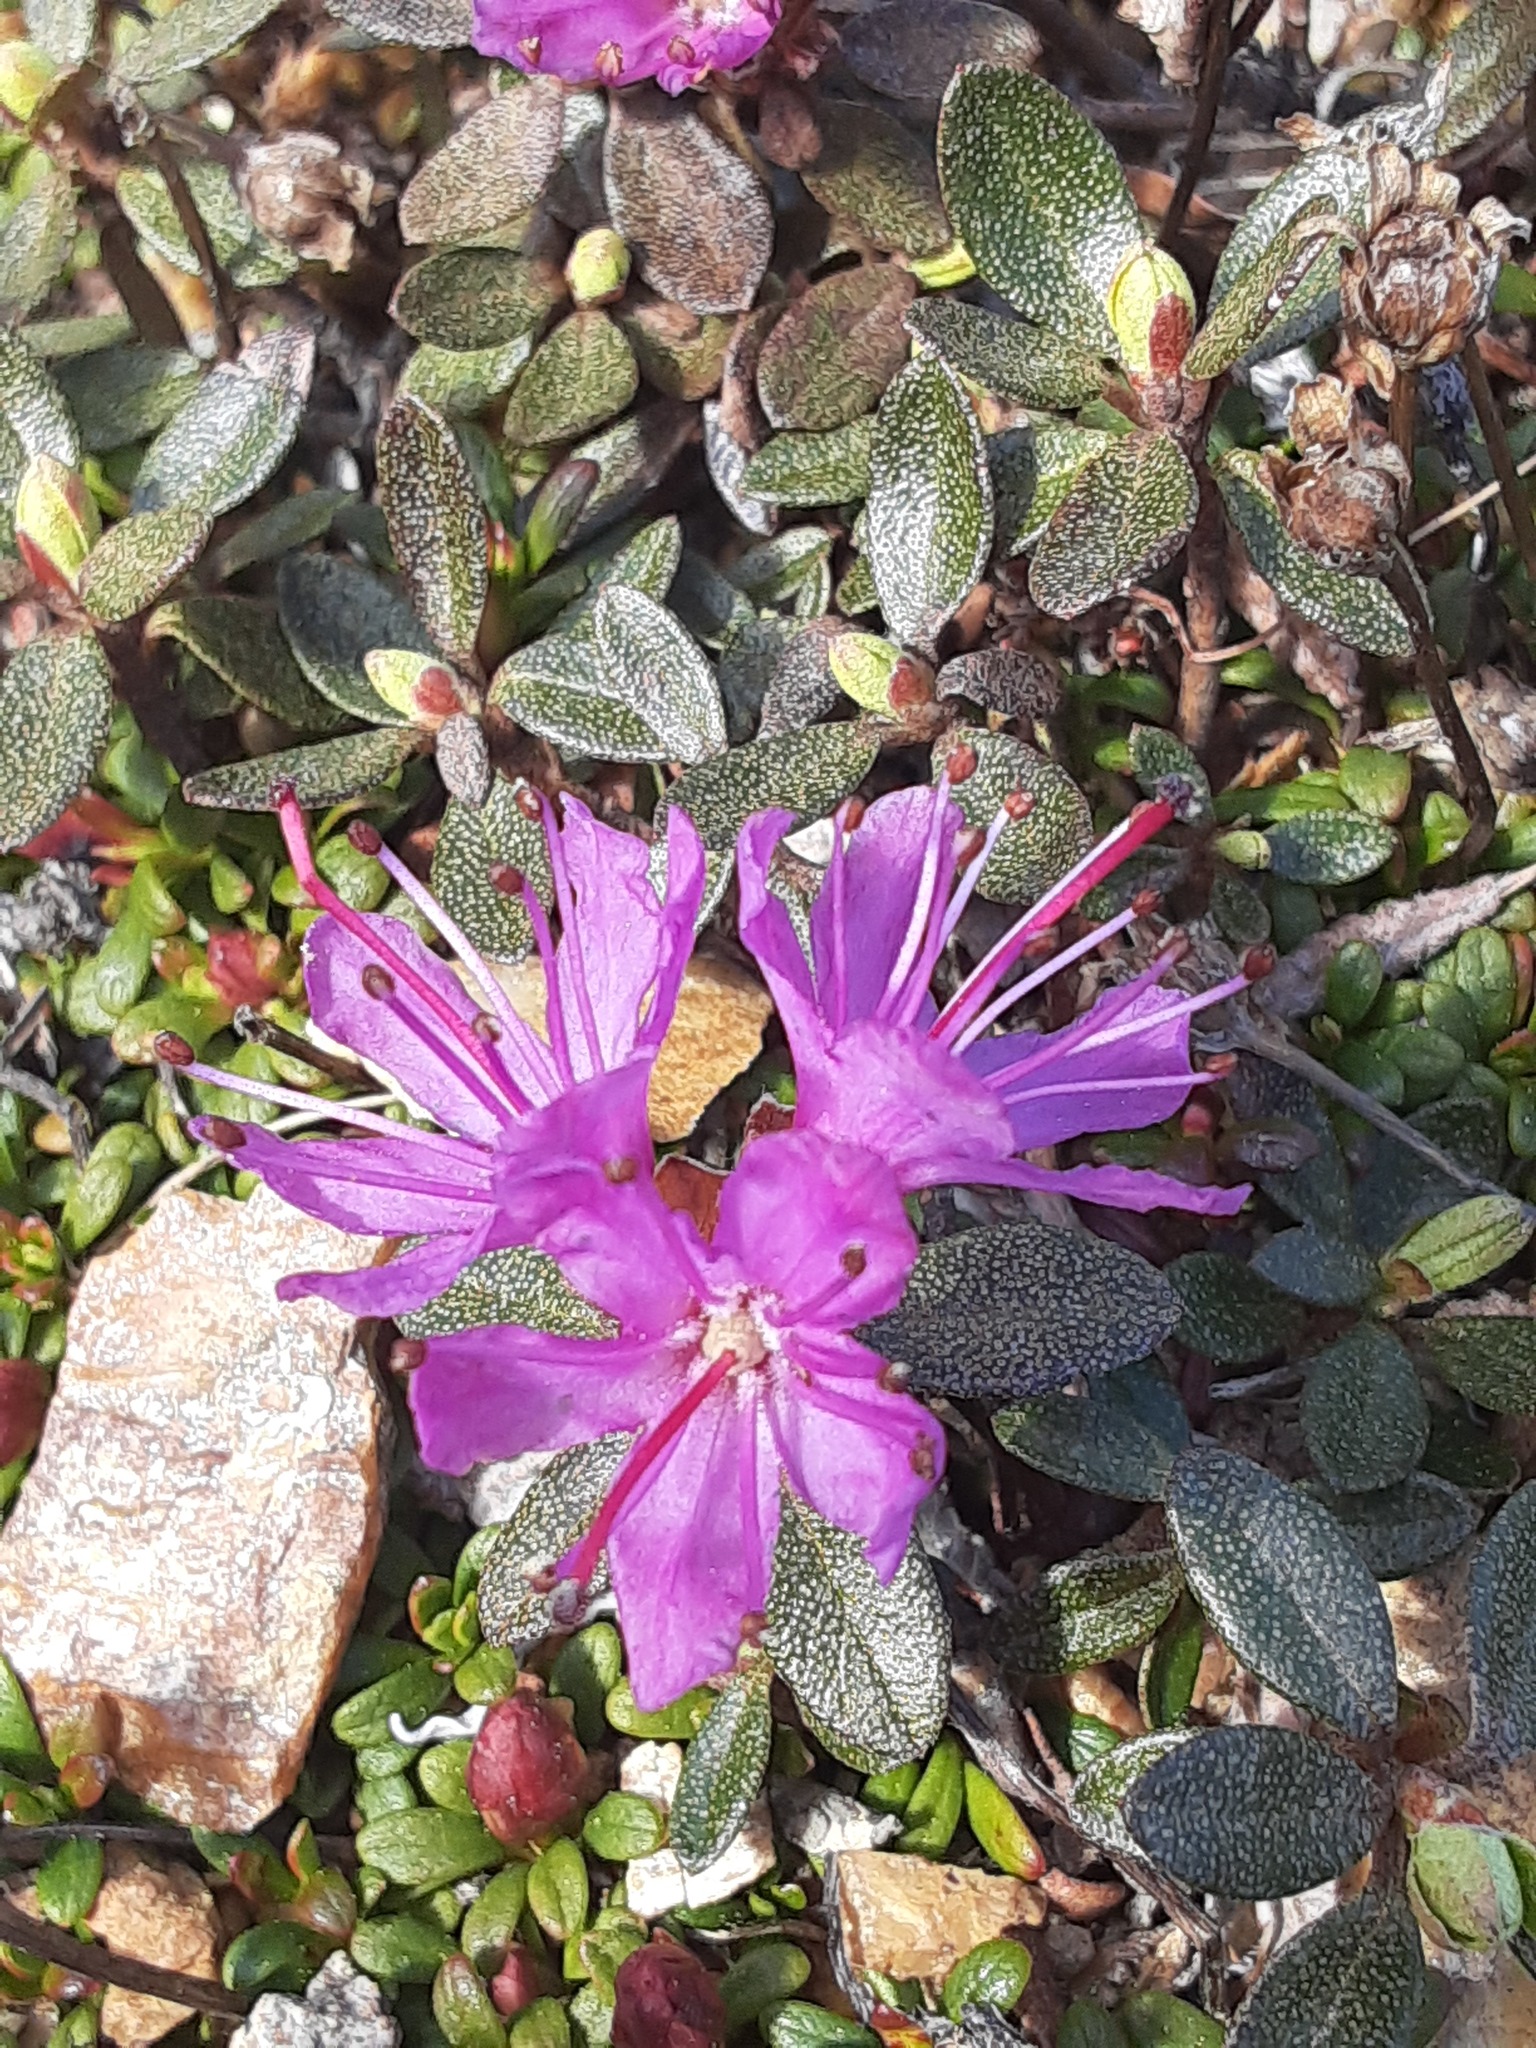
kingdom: Plantae
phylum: Tracheophyta
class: Magnoliopsida
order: Ericales
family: Ericaceae
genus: Rhododendron
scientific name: Rhododendron lapponicum
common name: Lapland rhododendron
